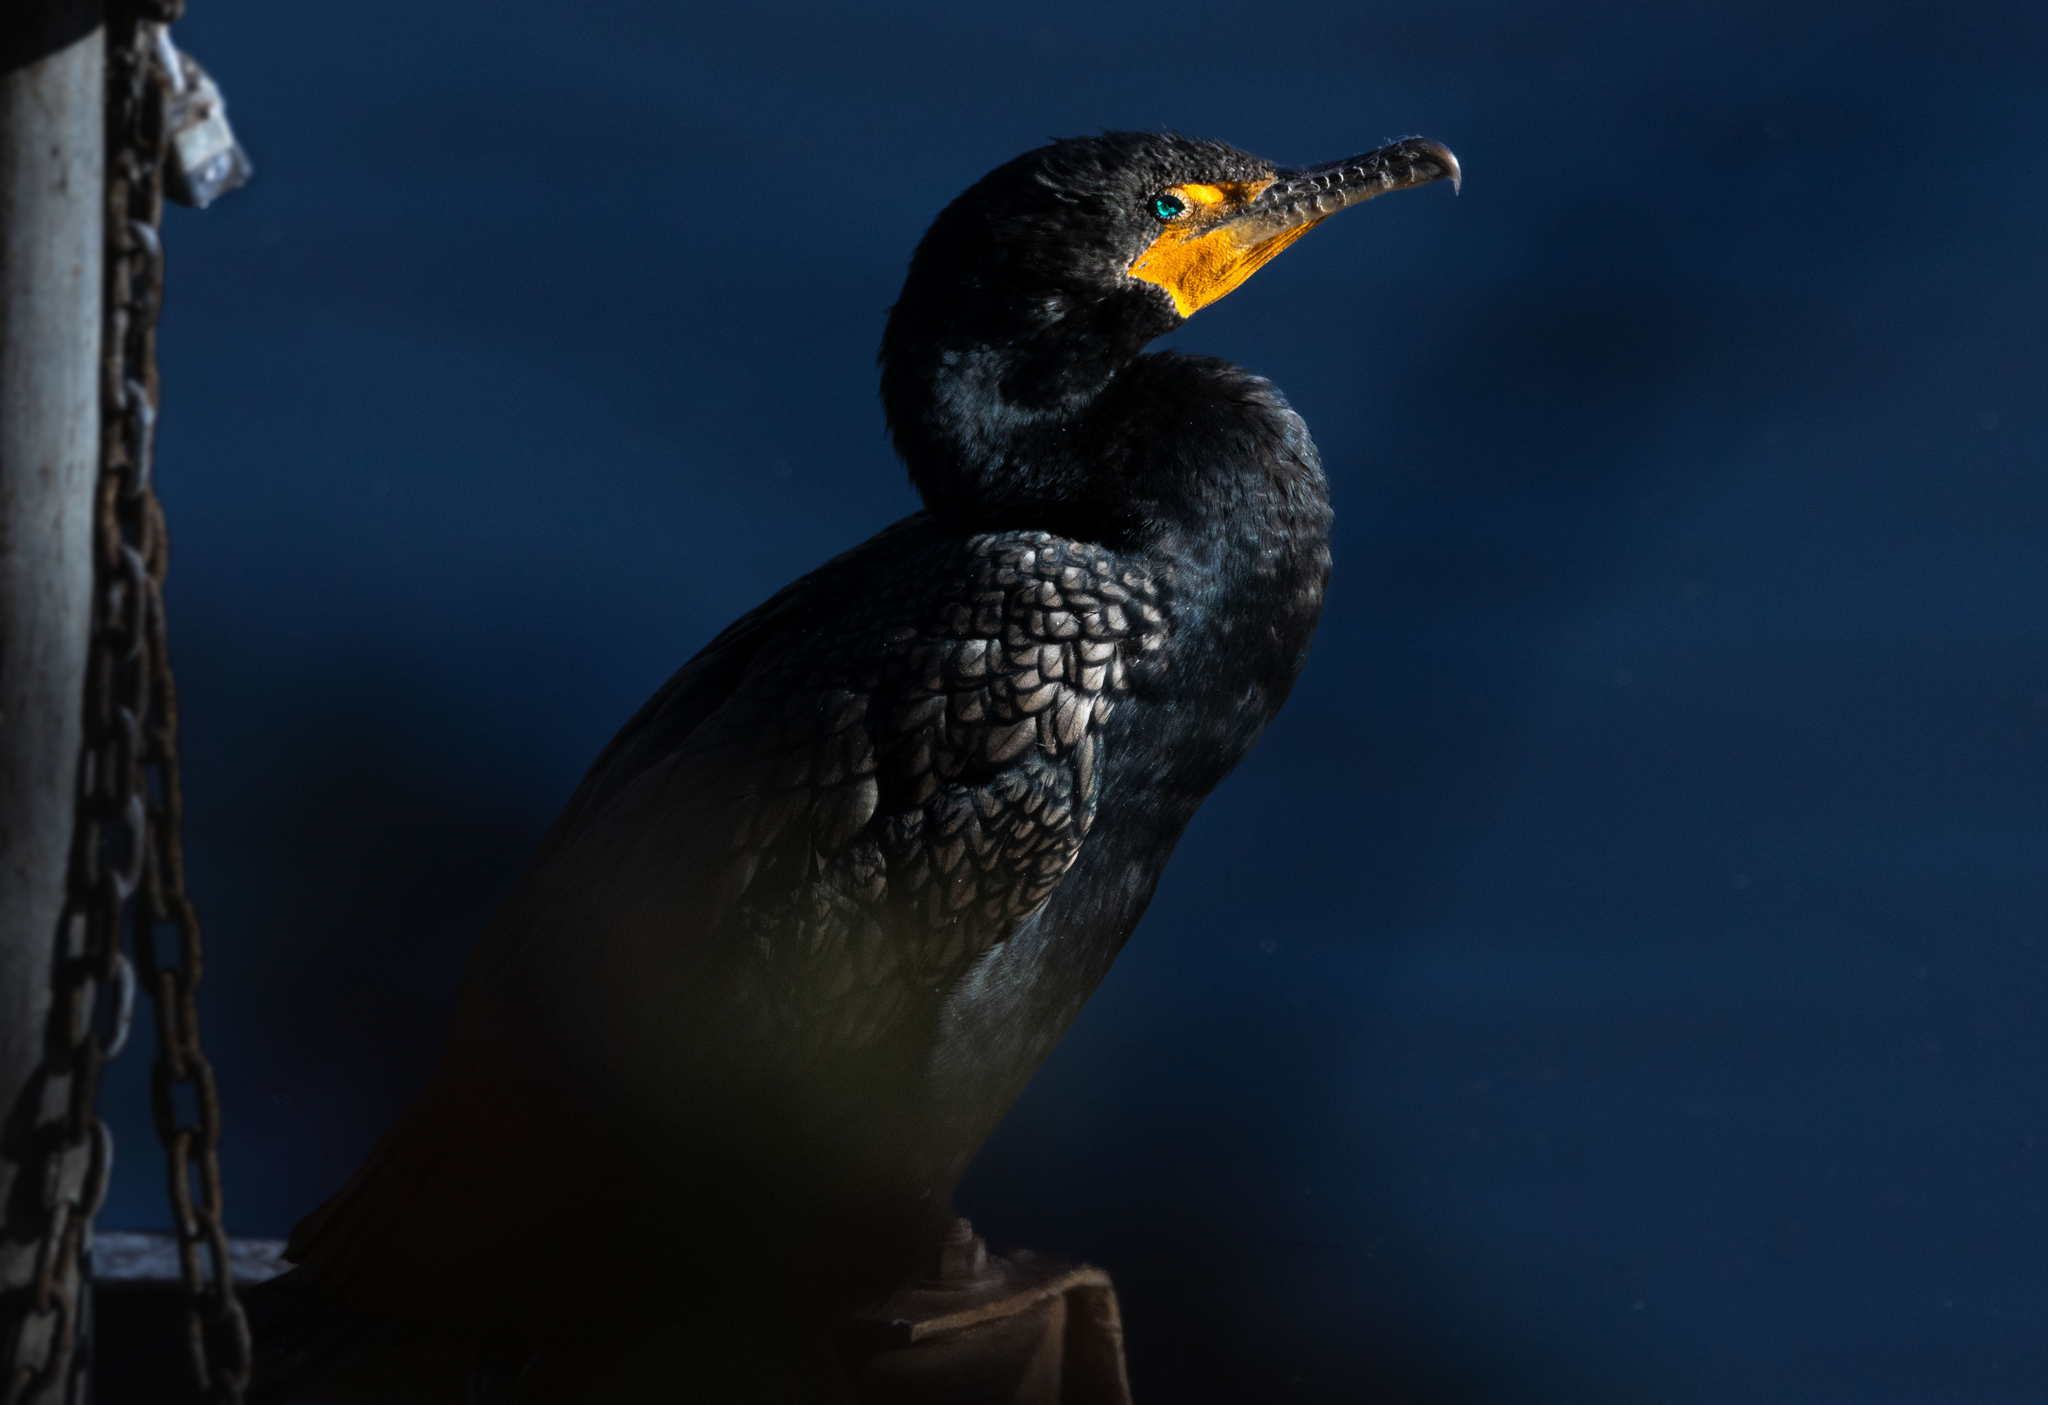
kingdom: Animalia
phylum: Chordata
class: Aves
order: Suliformes
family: Phalacrocoracidae
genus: Phalacrocorax
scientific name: Phalacrocorax auritus
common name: Double-crested cormorant
